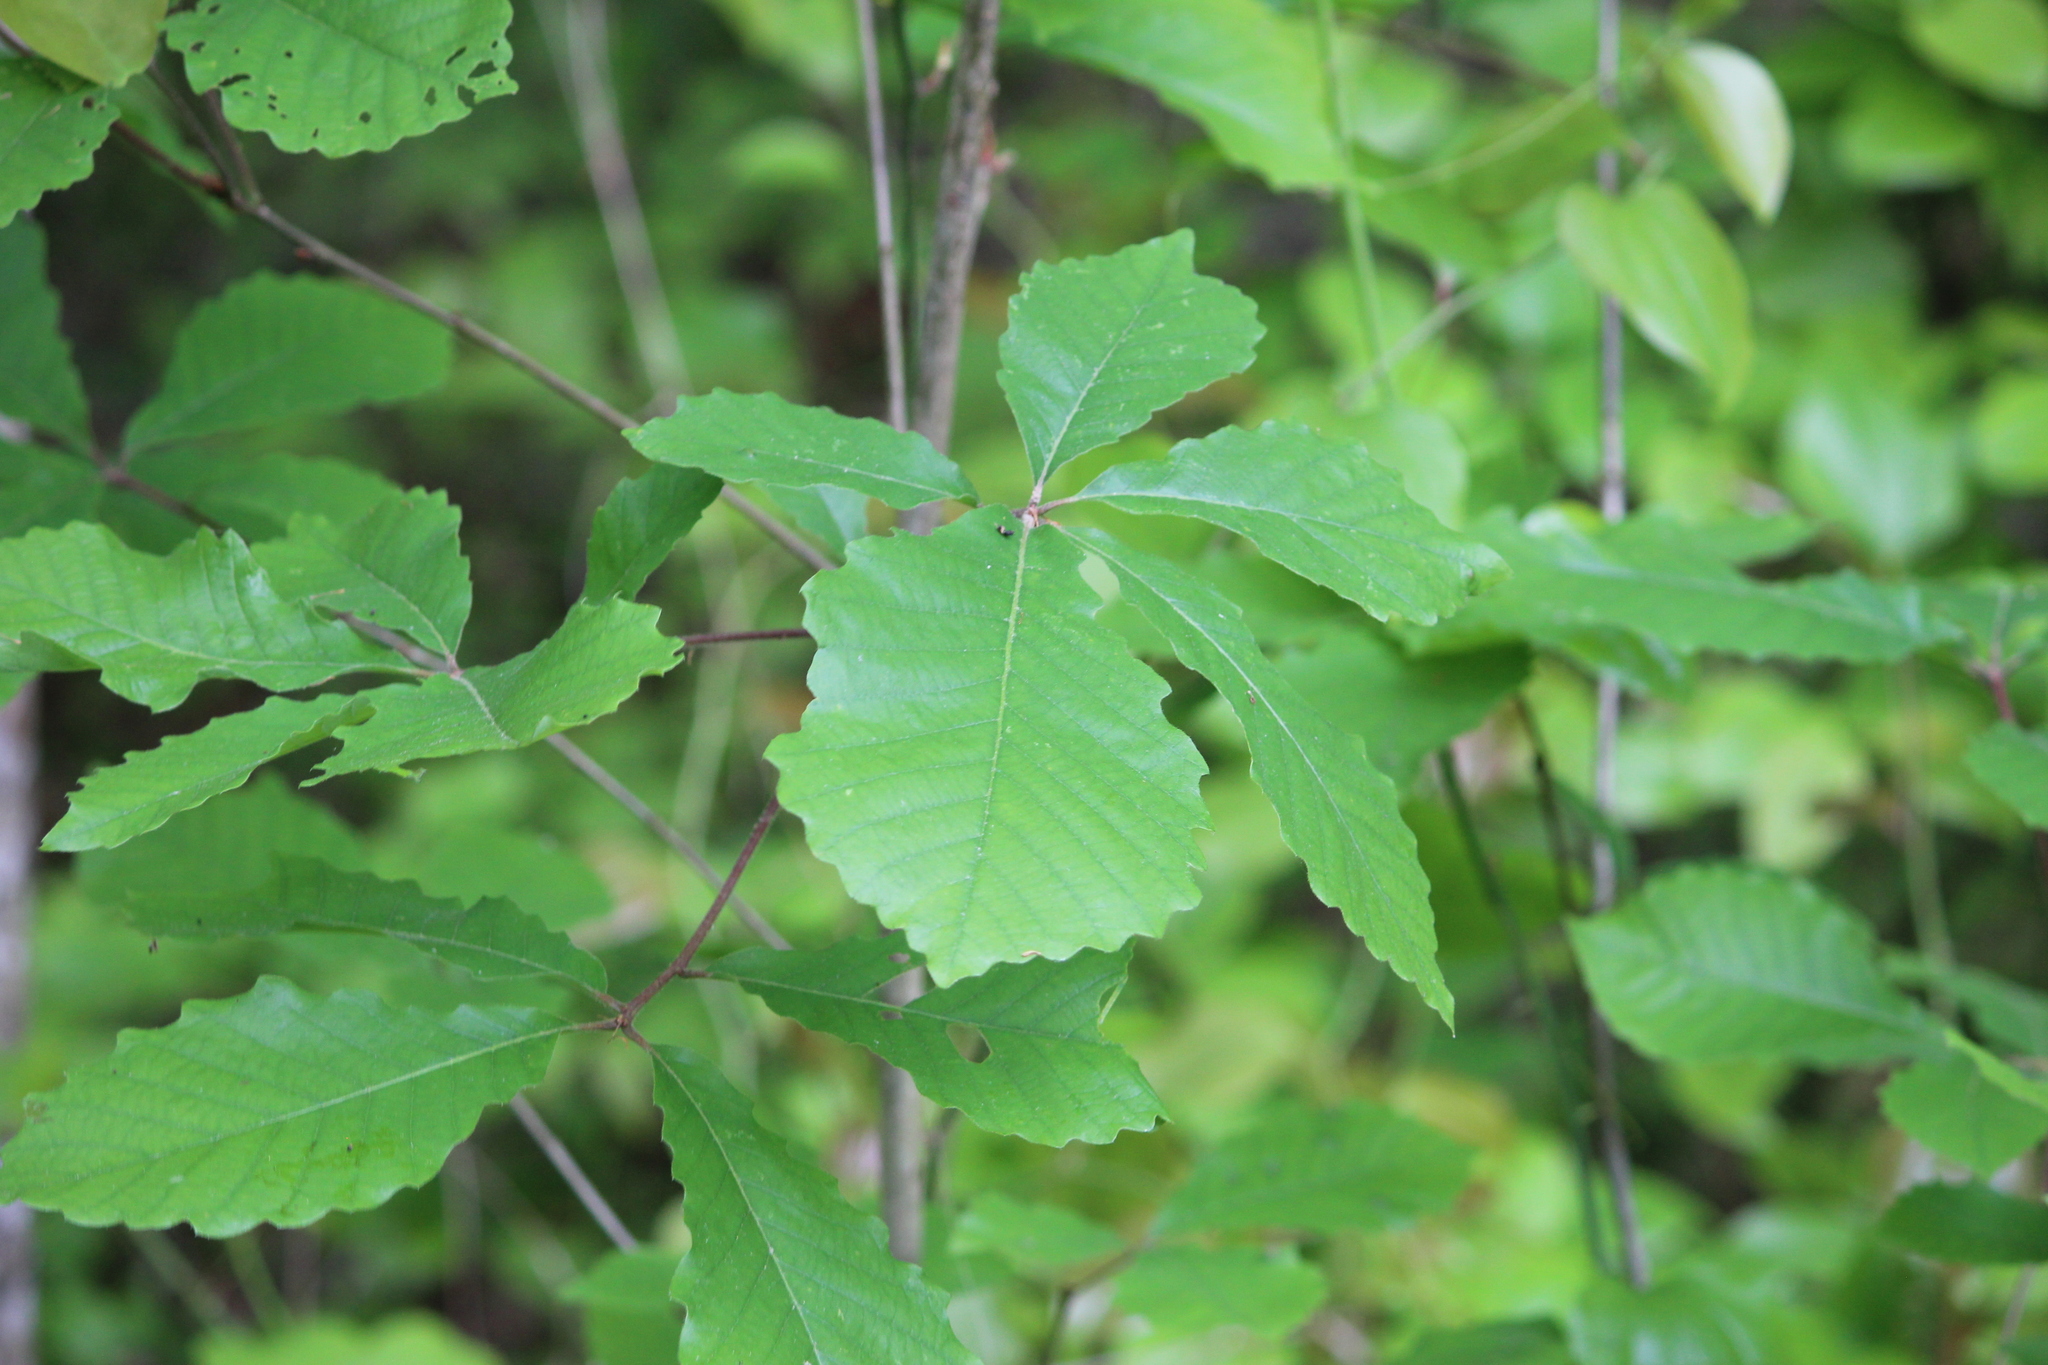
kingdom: Plantae
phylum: Tracheophyta
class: Magnoliopsida
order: Fagales
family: Fagaceae
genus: Quercus
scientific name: Quercus michauxii
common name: Swamp chestnut oak
